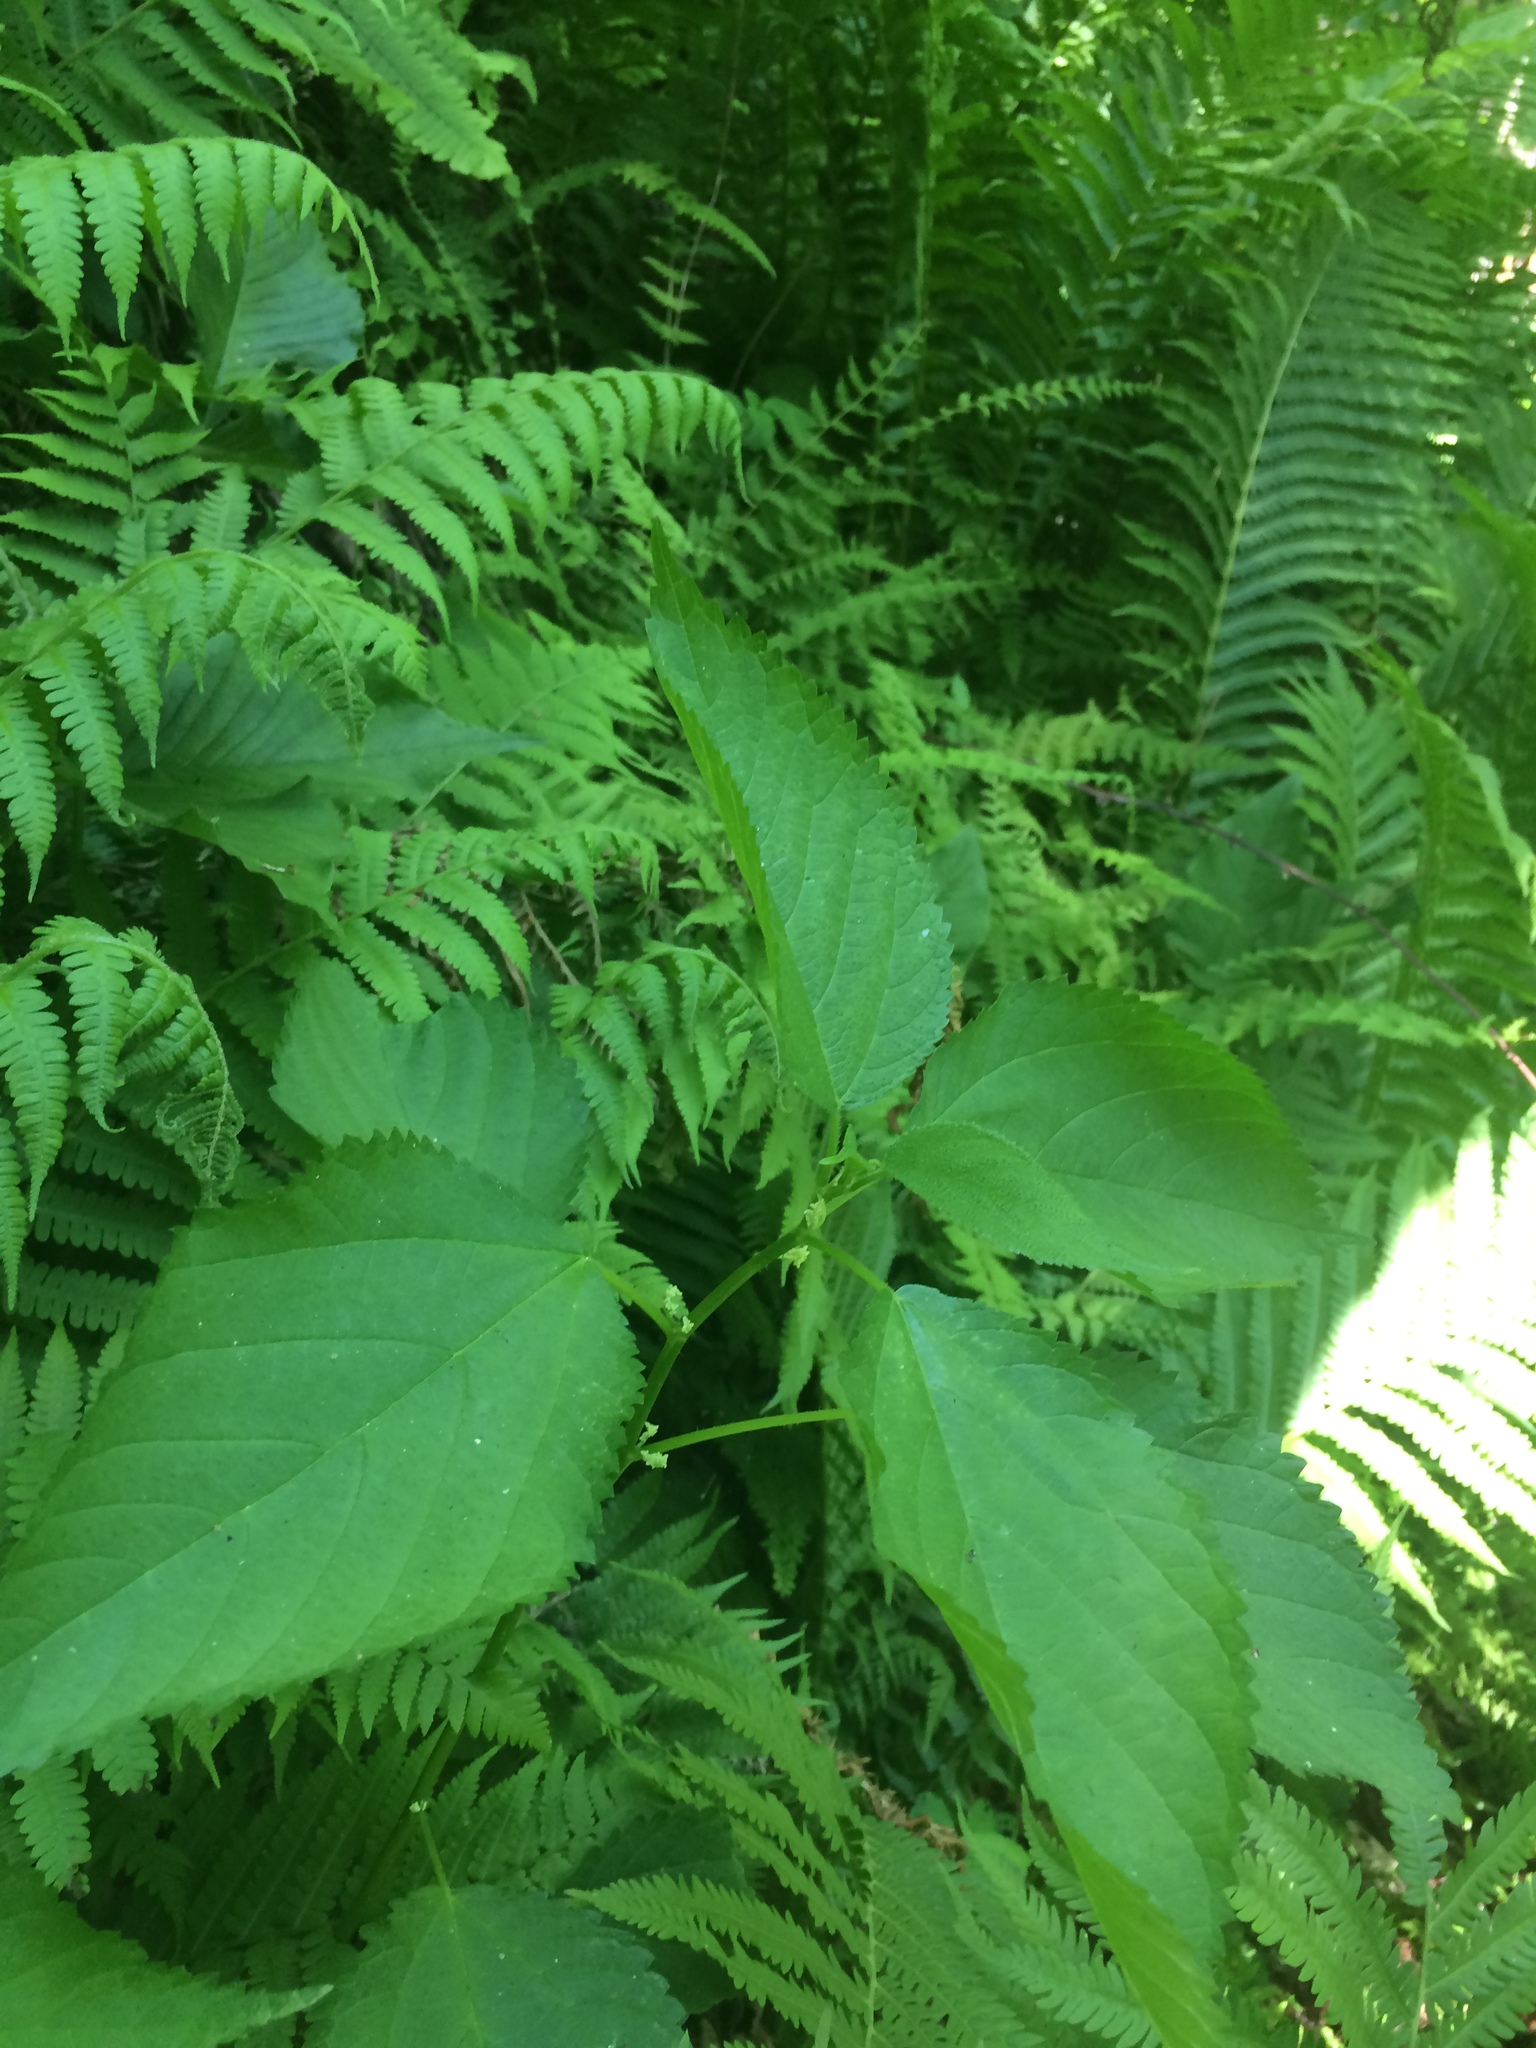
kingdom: Plantae
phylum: Tracheophyta
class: Magnoliopsida
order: Rosales
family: Urticaceae
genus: Laportea
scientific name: Laportea canadensis
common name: Canada nettle
